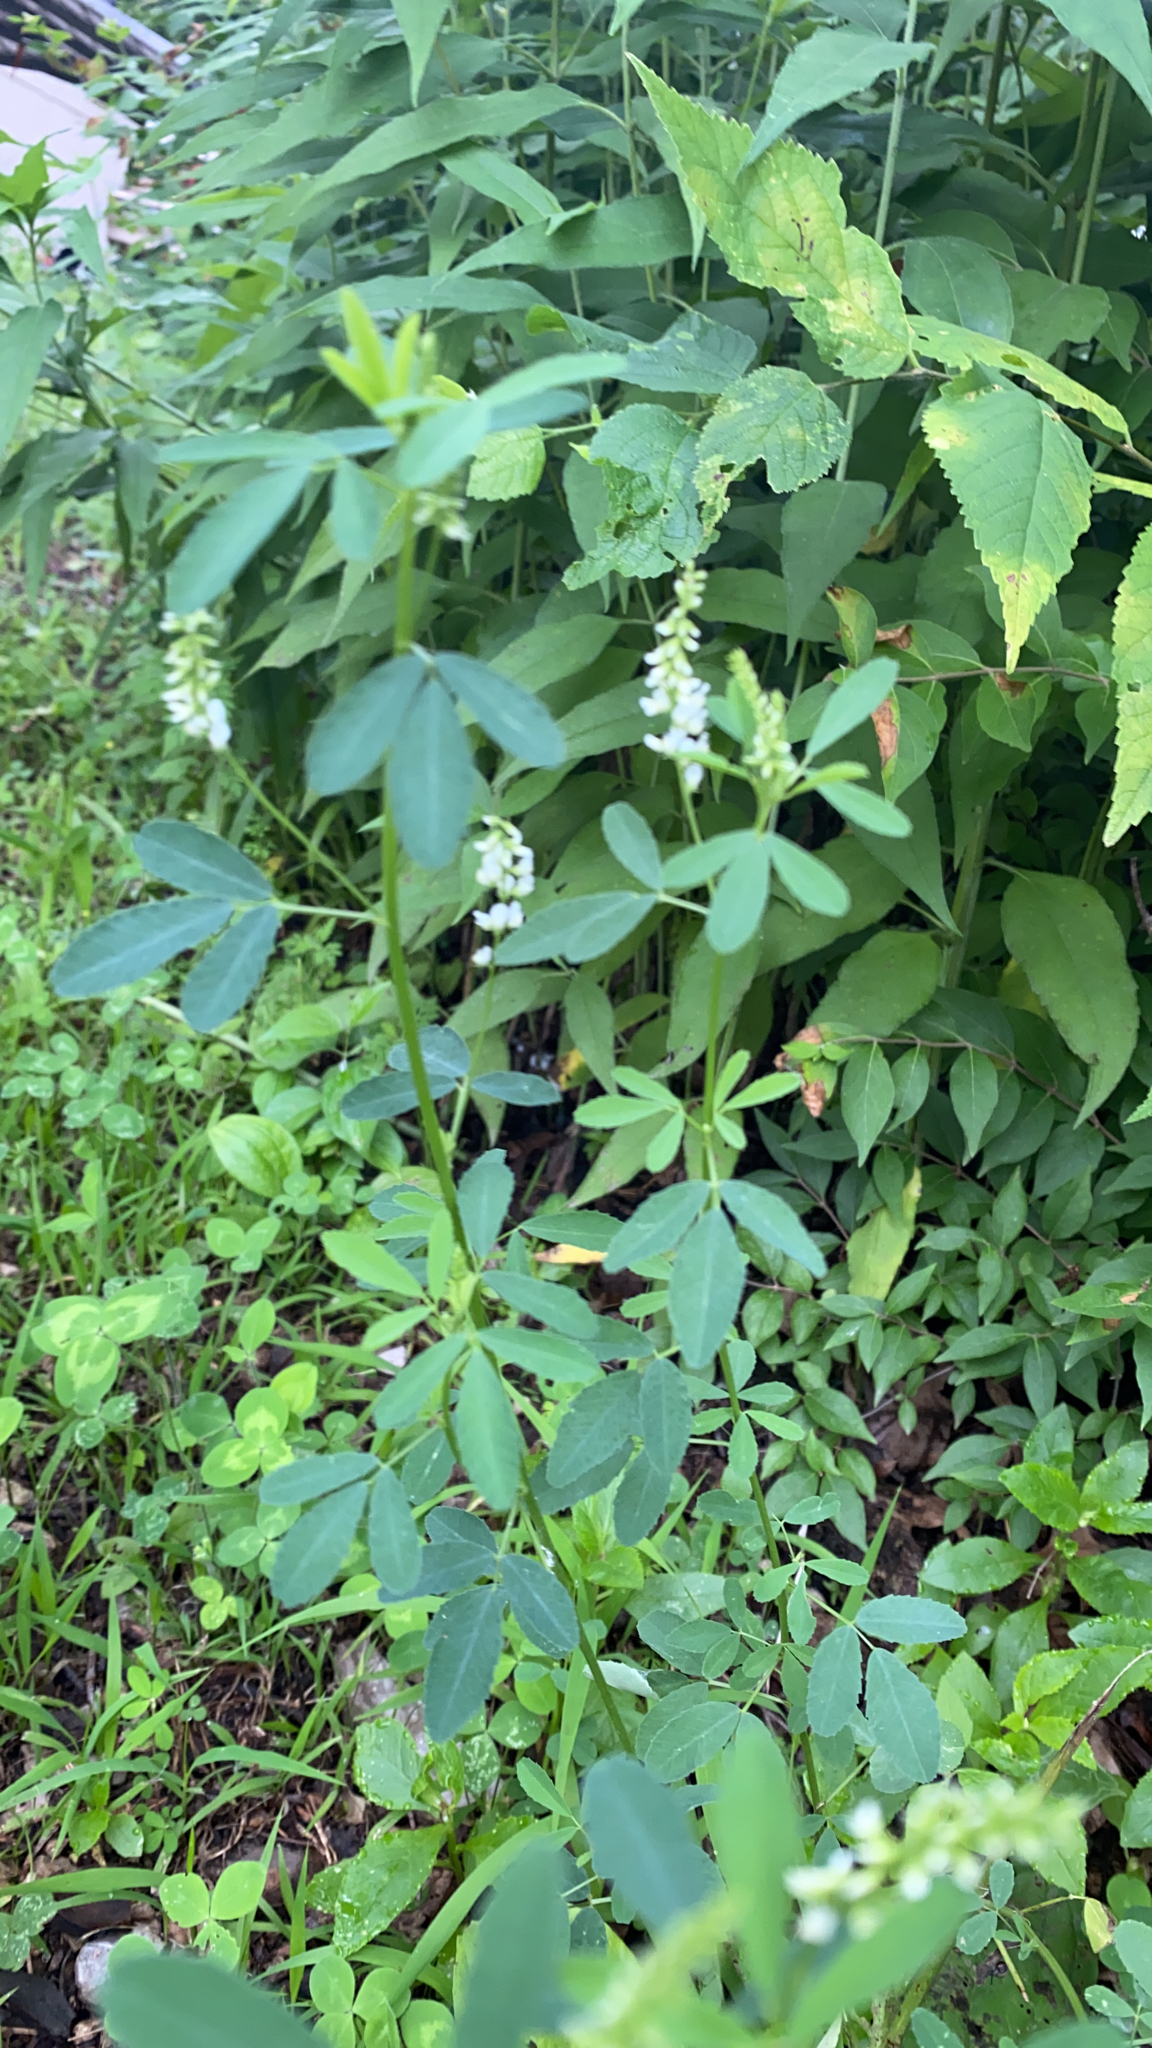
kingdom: Plantae
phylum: Tracheophyta
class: Magnoliopsida
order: Fabales
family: Fabaceae
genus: Melilotus
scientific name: Melilotus albus
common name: White melilot
